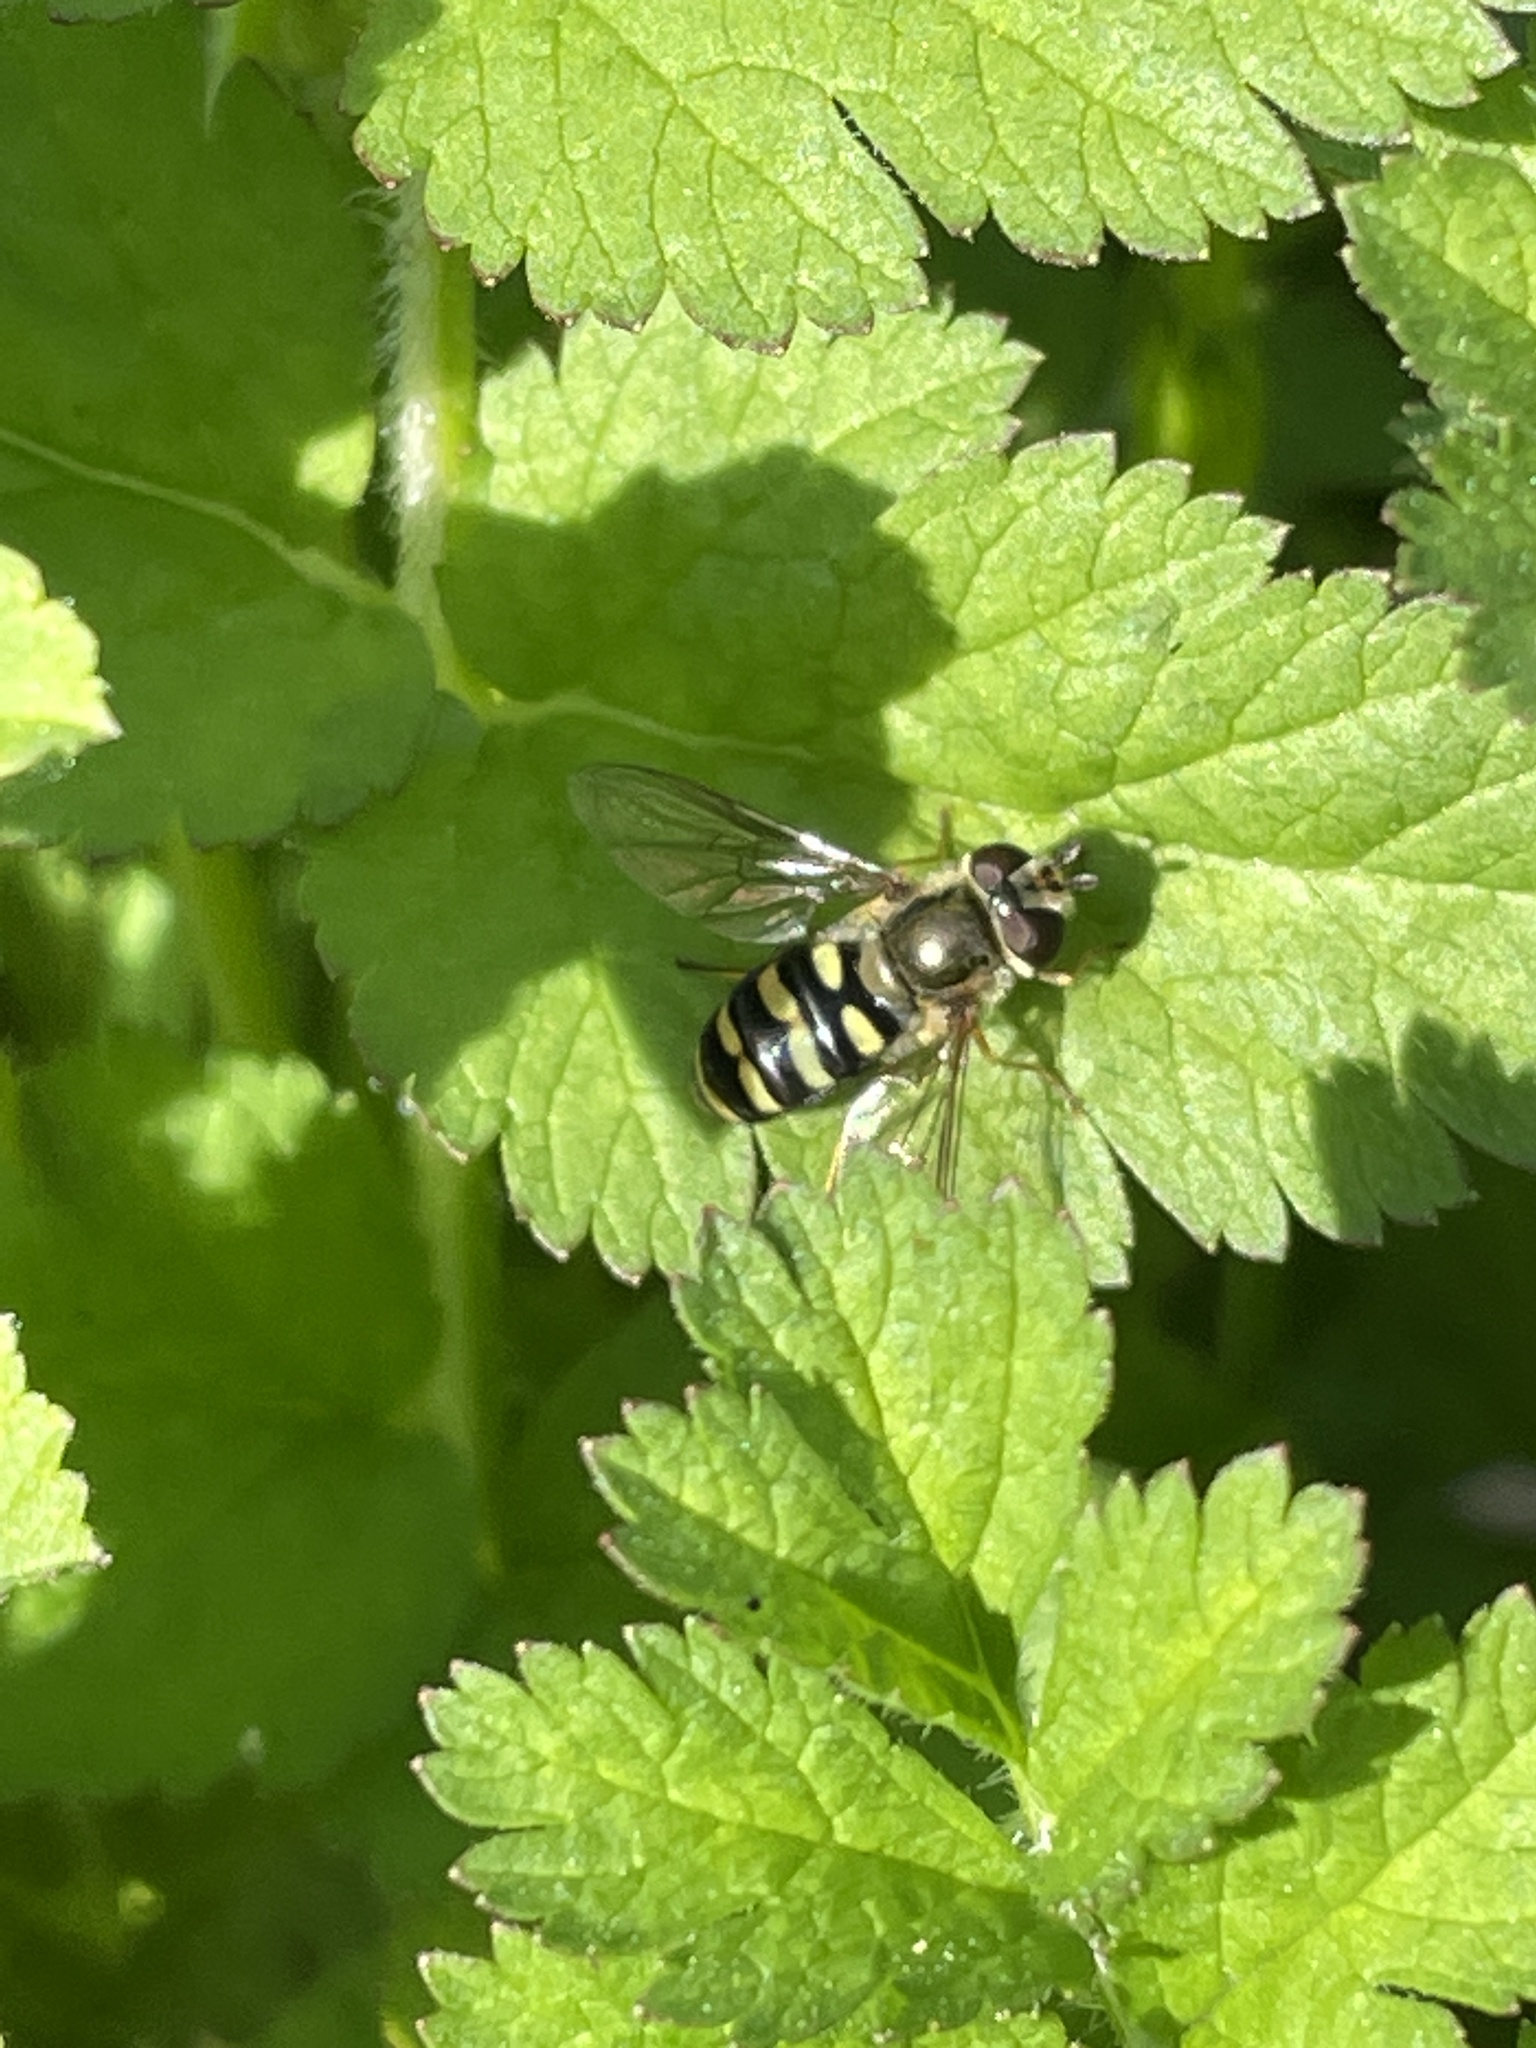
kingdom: Animalia
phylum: Arthropoda
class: Insecta
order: Diptera
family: Syrphidae
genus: Eupeodes
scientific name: Eupeodes fumipennis
